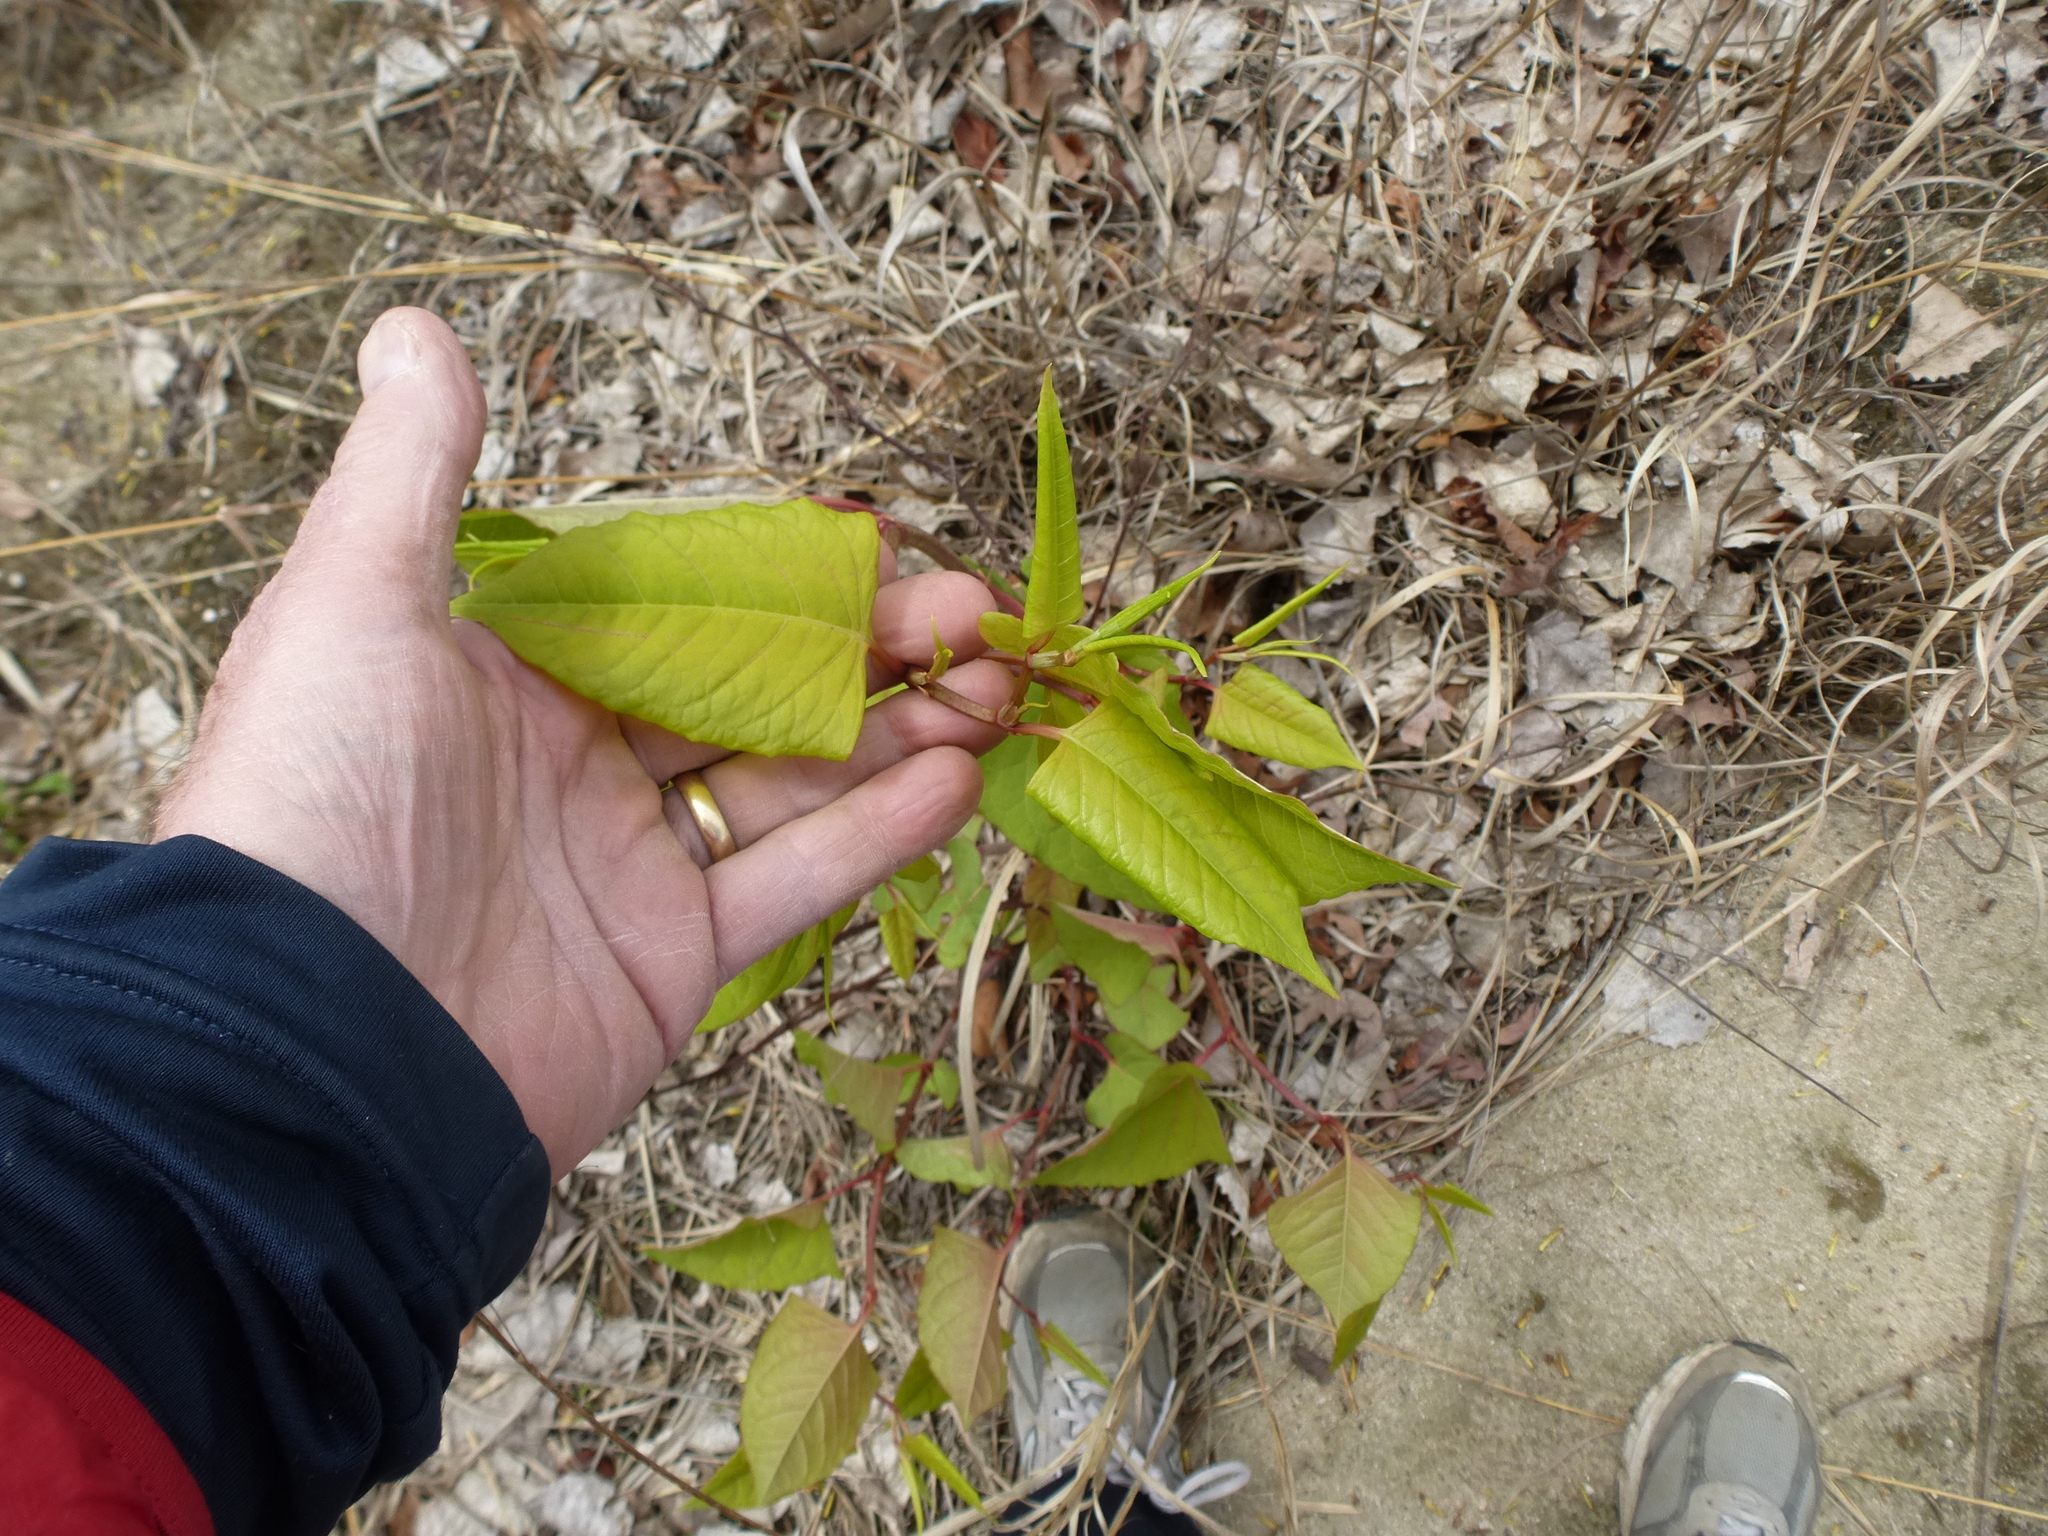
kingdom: Plantae
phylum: Tracheophyta
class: Magnoliopsida
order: Caryophyllales
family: Polygonaceae
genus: Reynoutria
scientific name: Reynoutria japonica
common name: Japanese knotweed
